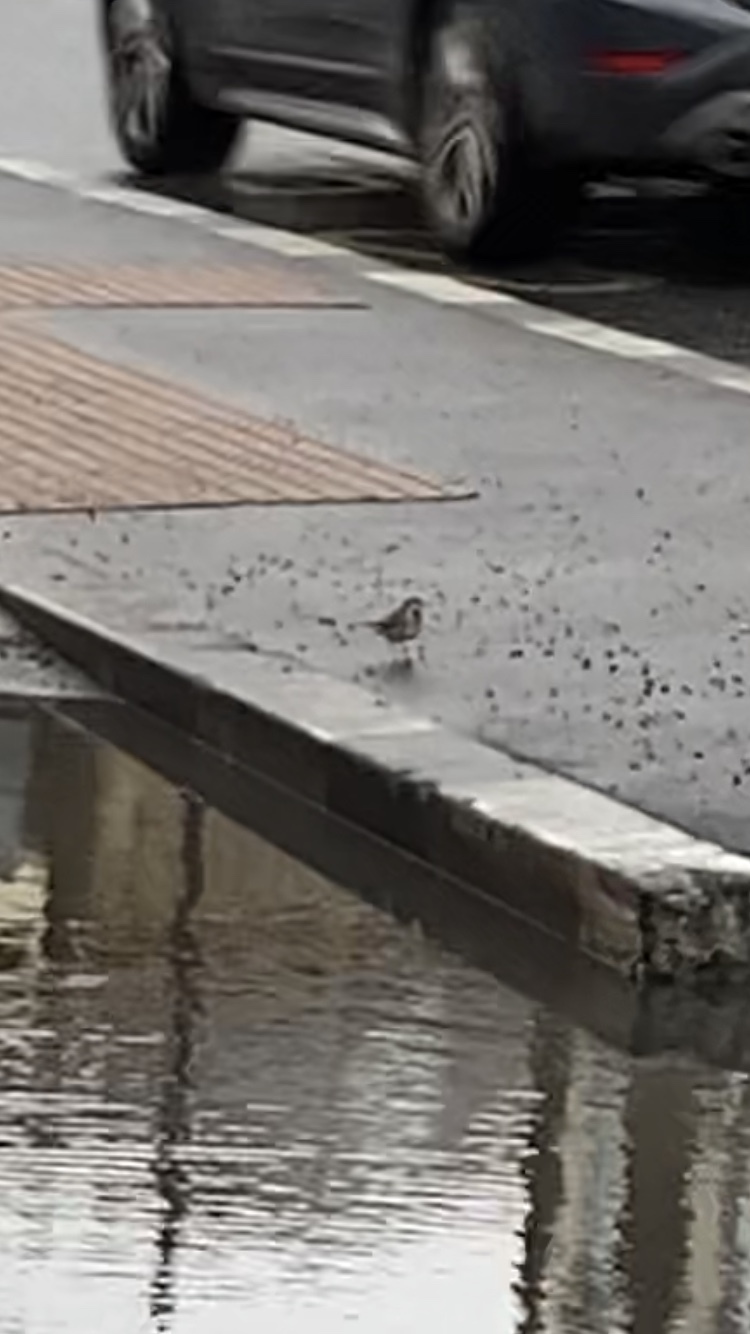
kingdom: Animalia
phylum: Chordata
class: Aves
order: Passeriformes
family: Motacillidae
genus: Motacilla
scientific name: Motacilla alba
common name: White wagtail
